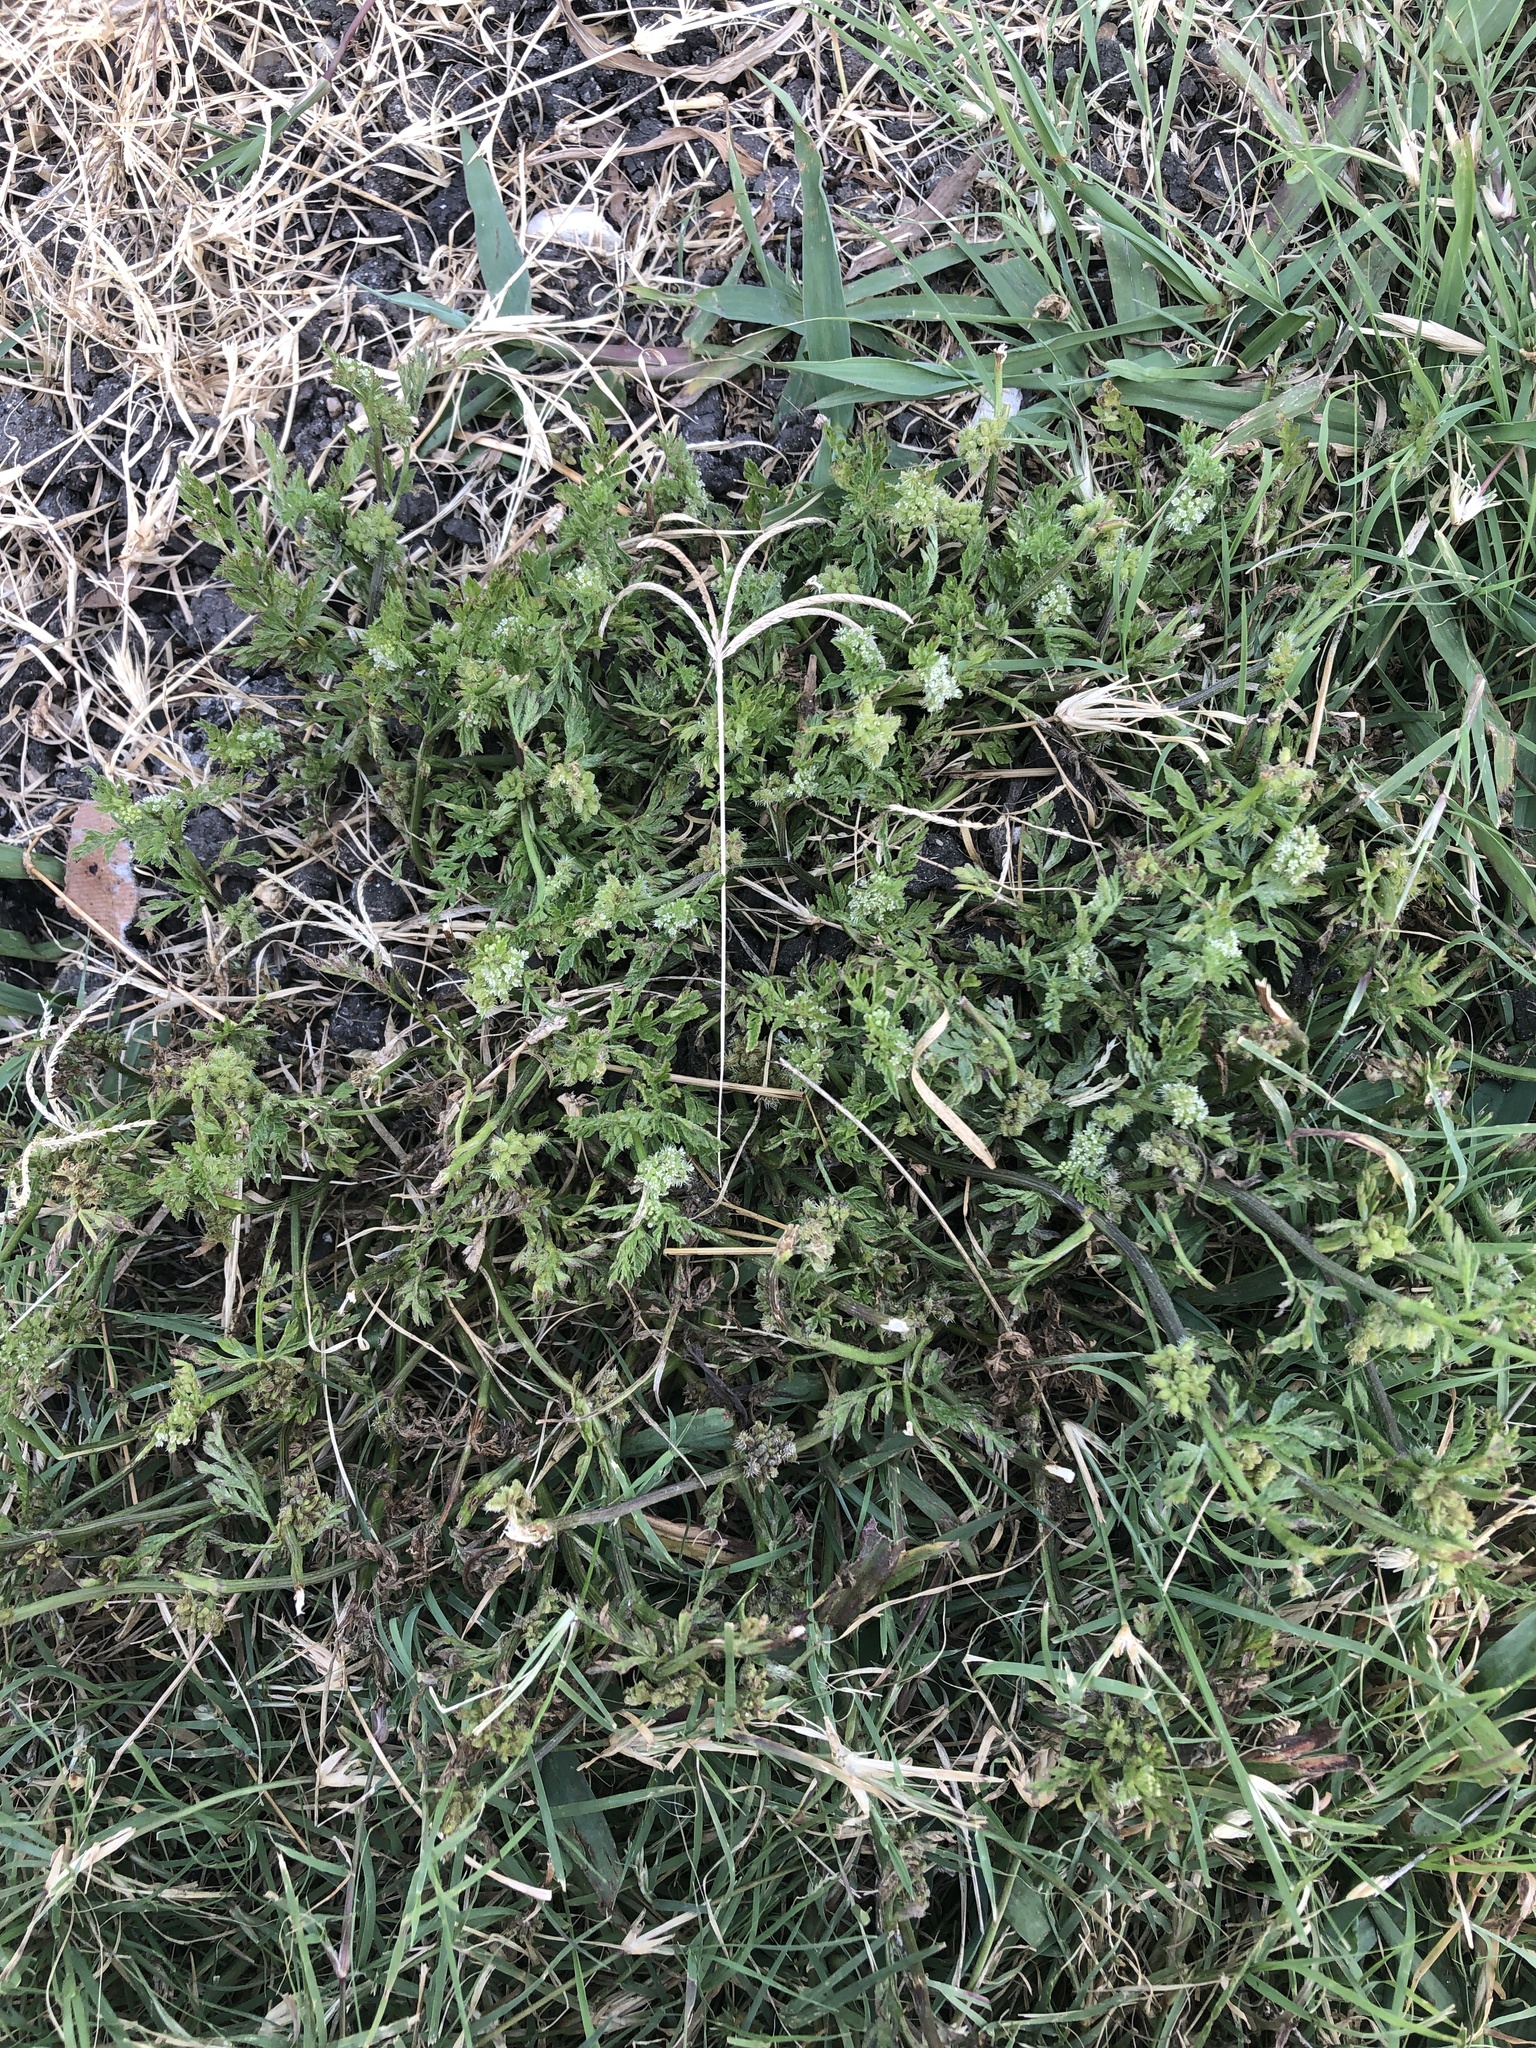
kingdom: Plantae
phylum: Tracheophyta
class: Magnoliopsida
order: Apiales
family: Apiaceae
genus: Torilis
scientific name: Torilis nodosa
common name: Knotted hedge-parsley
